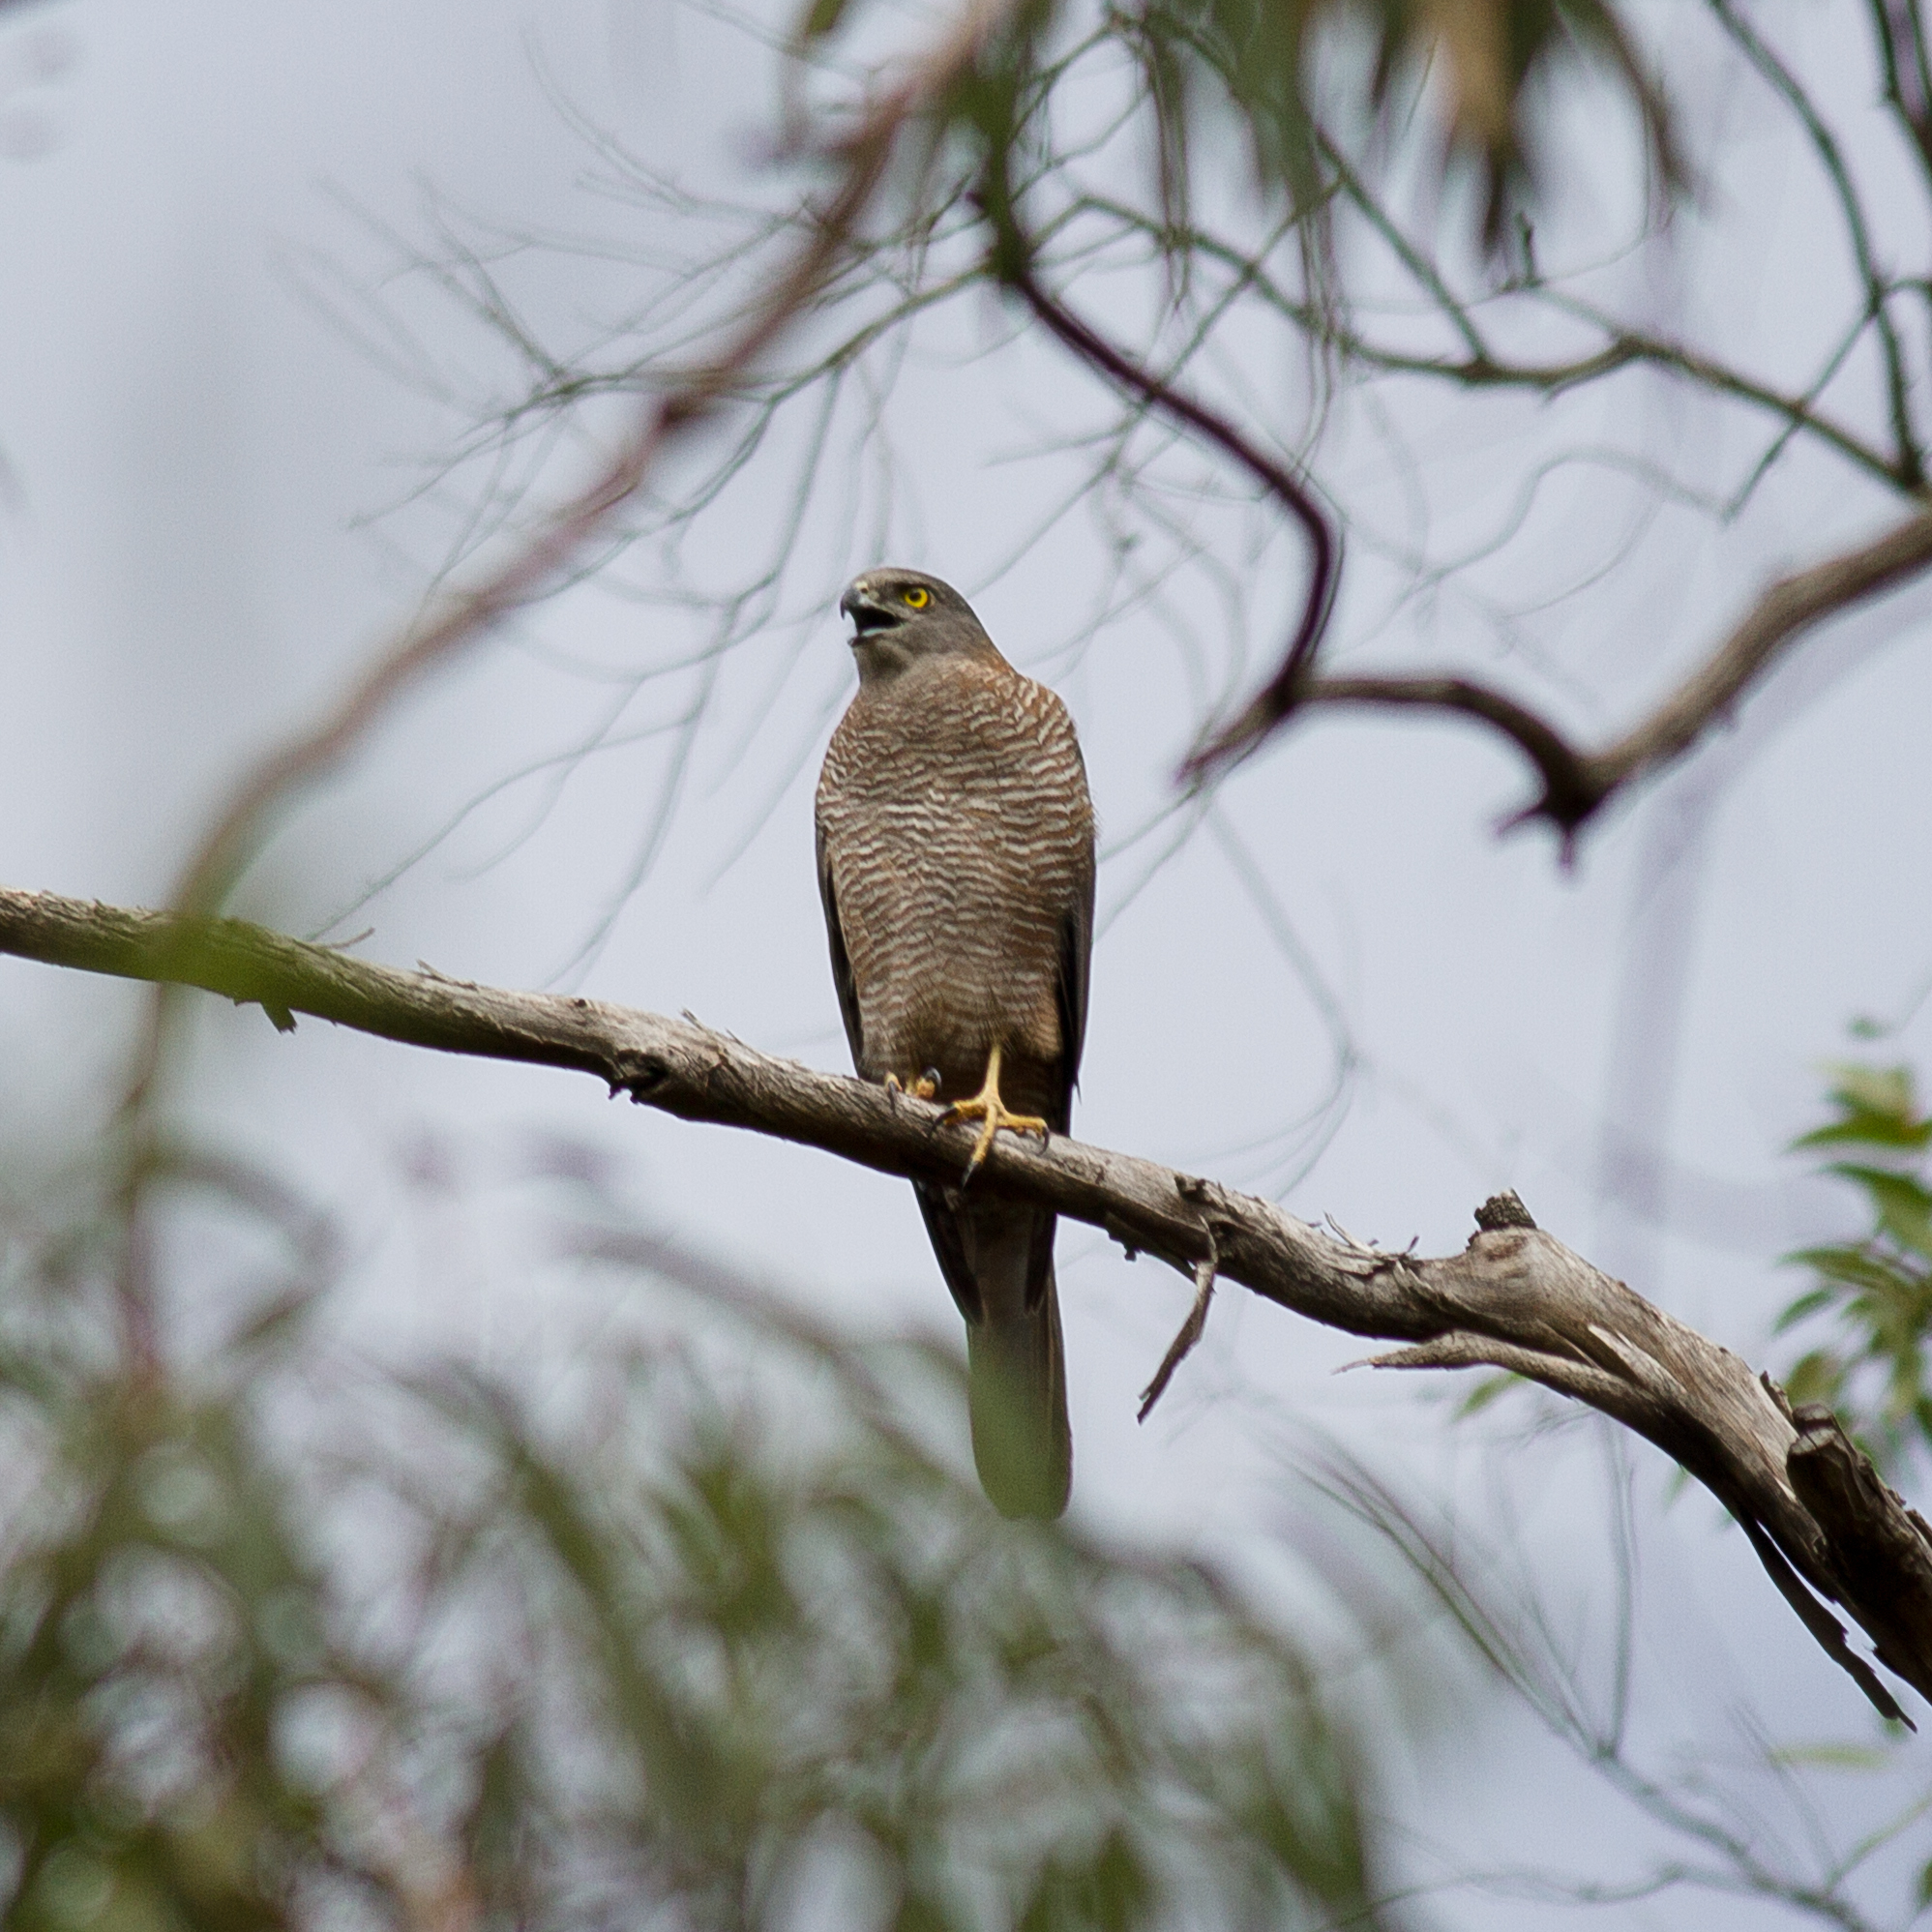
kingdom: Animalia
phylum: Chordata
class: Aves
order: Accipitriformes
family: Accipitridae
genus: Accipiter
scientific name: Accipiter fasciatus
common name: Brown goshawk
